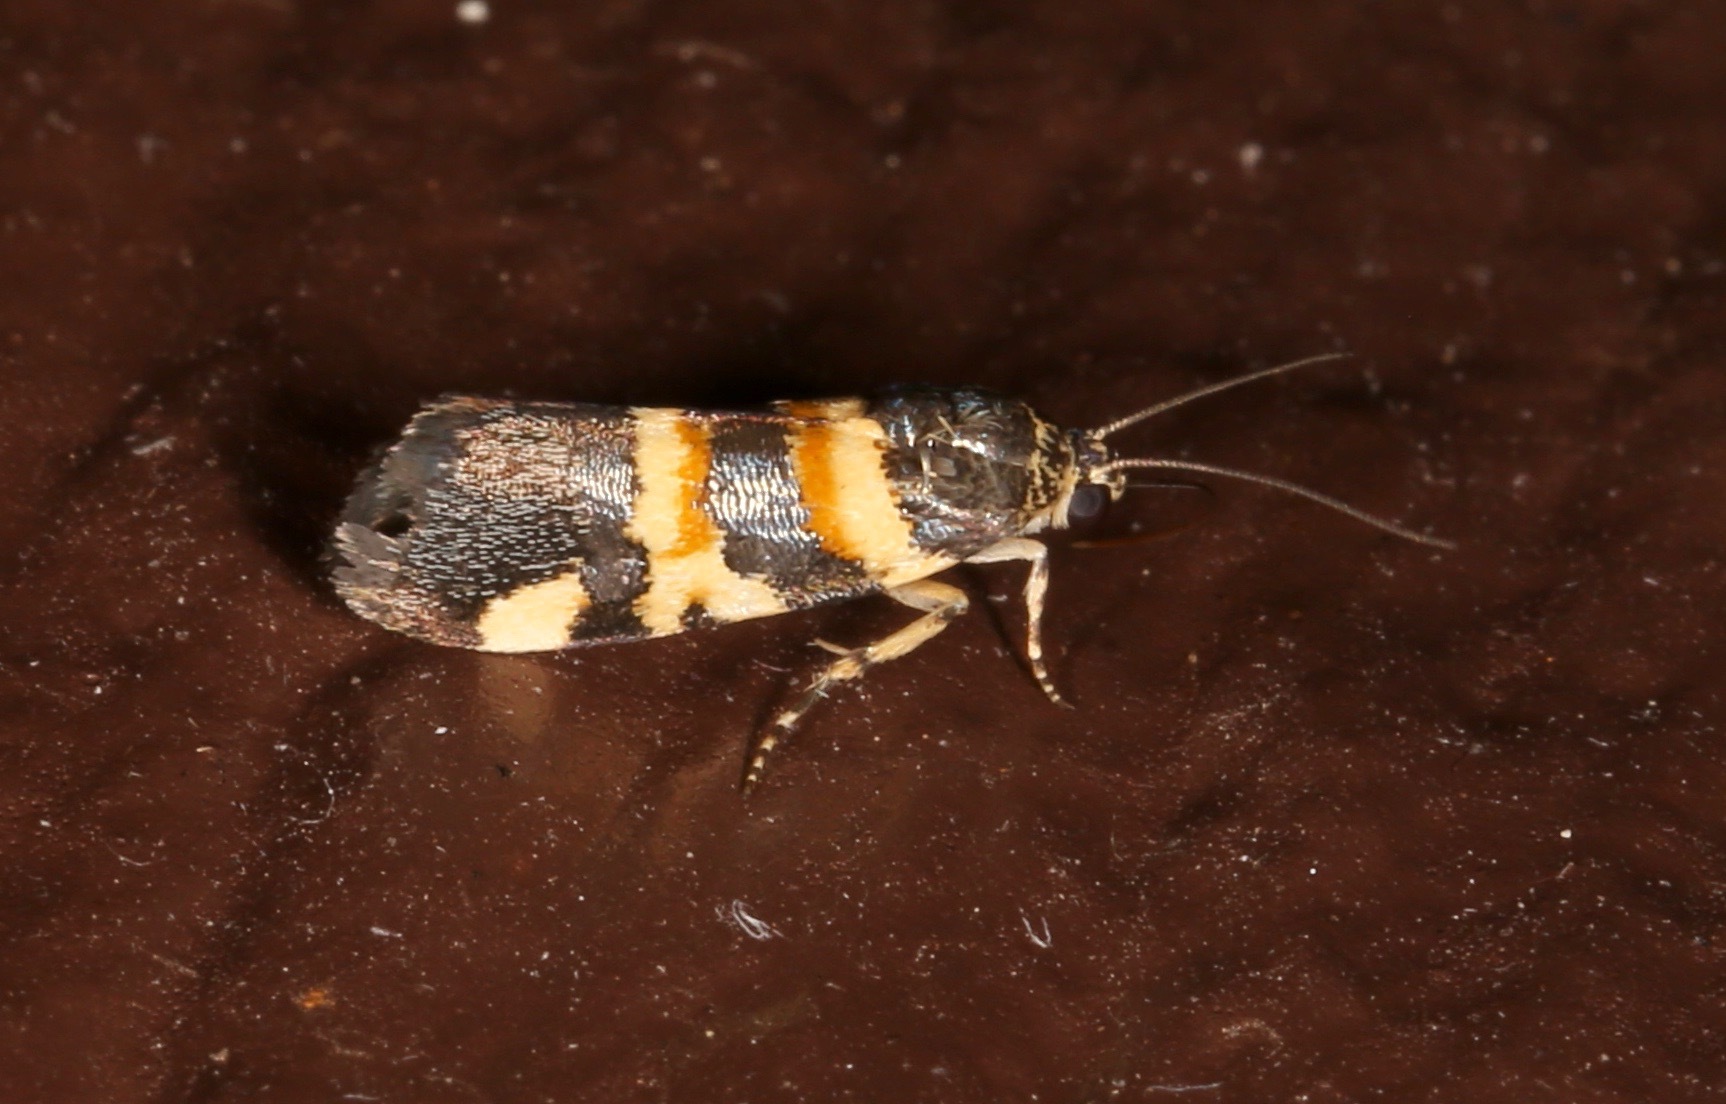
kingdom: Animalia
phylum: Arthropoda
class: Insecta
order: Lepidoptera
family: Noctuidae
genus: Spragueia
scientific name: Spragueia funeralis
